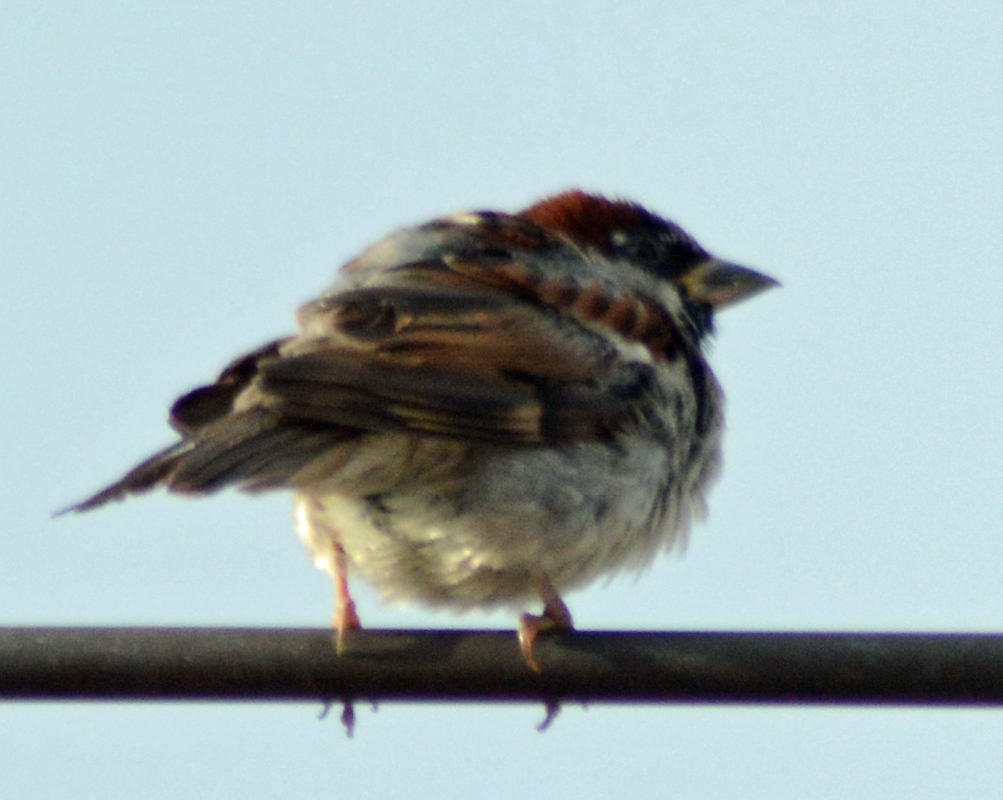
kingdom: Animalia
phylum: Chordata
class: Aves
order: Passeriformes
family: Passeridae
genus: Passer
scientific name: Passer domesticus
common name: House sparrow
